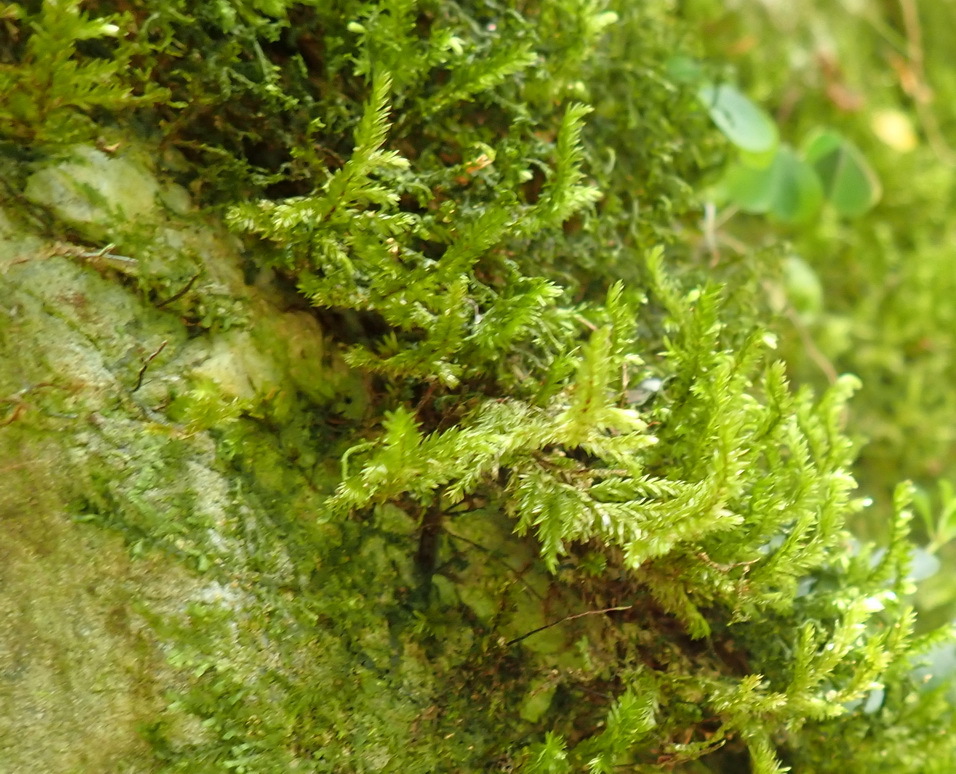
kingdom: Plantae
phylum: Bryophyta
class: Bryopsida
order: Hypnales
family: Pterobryaceae
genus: Pterobryopsis
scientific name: Pterobryopsis hoehnelii
